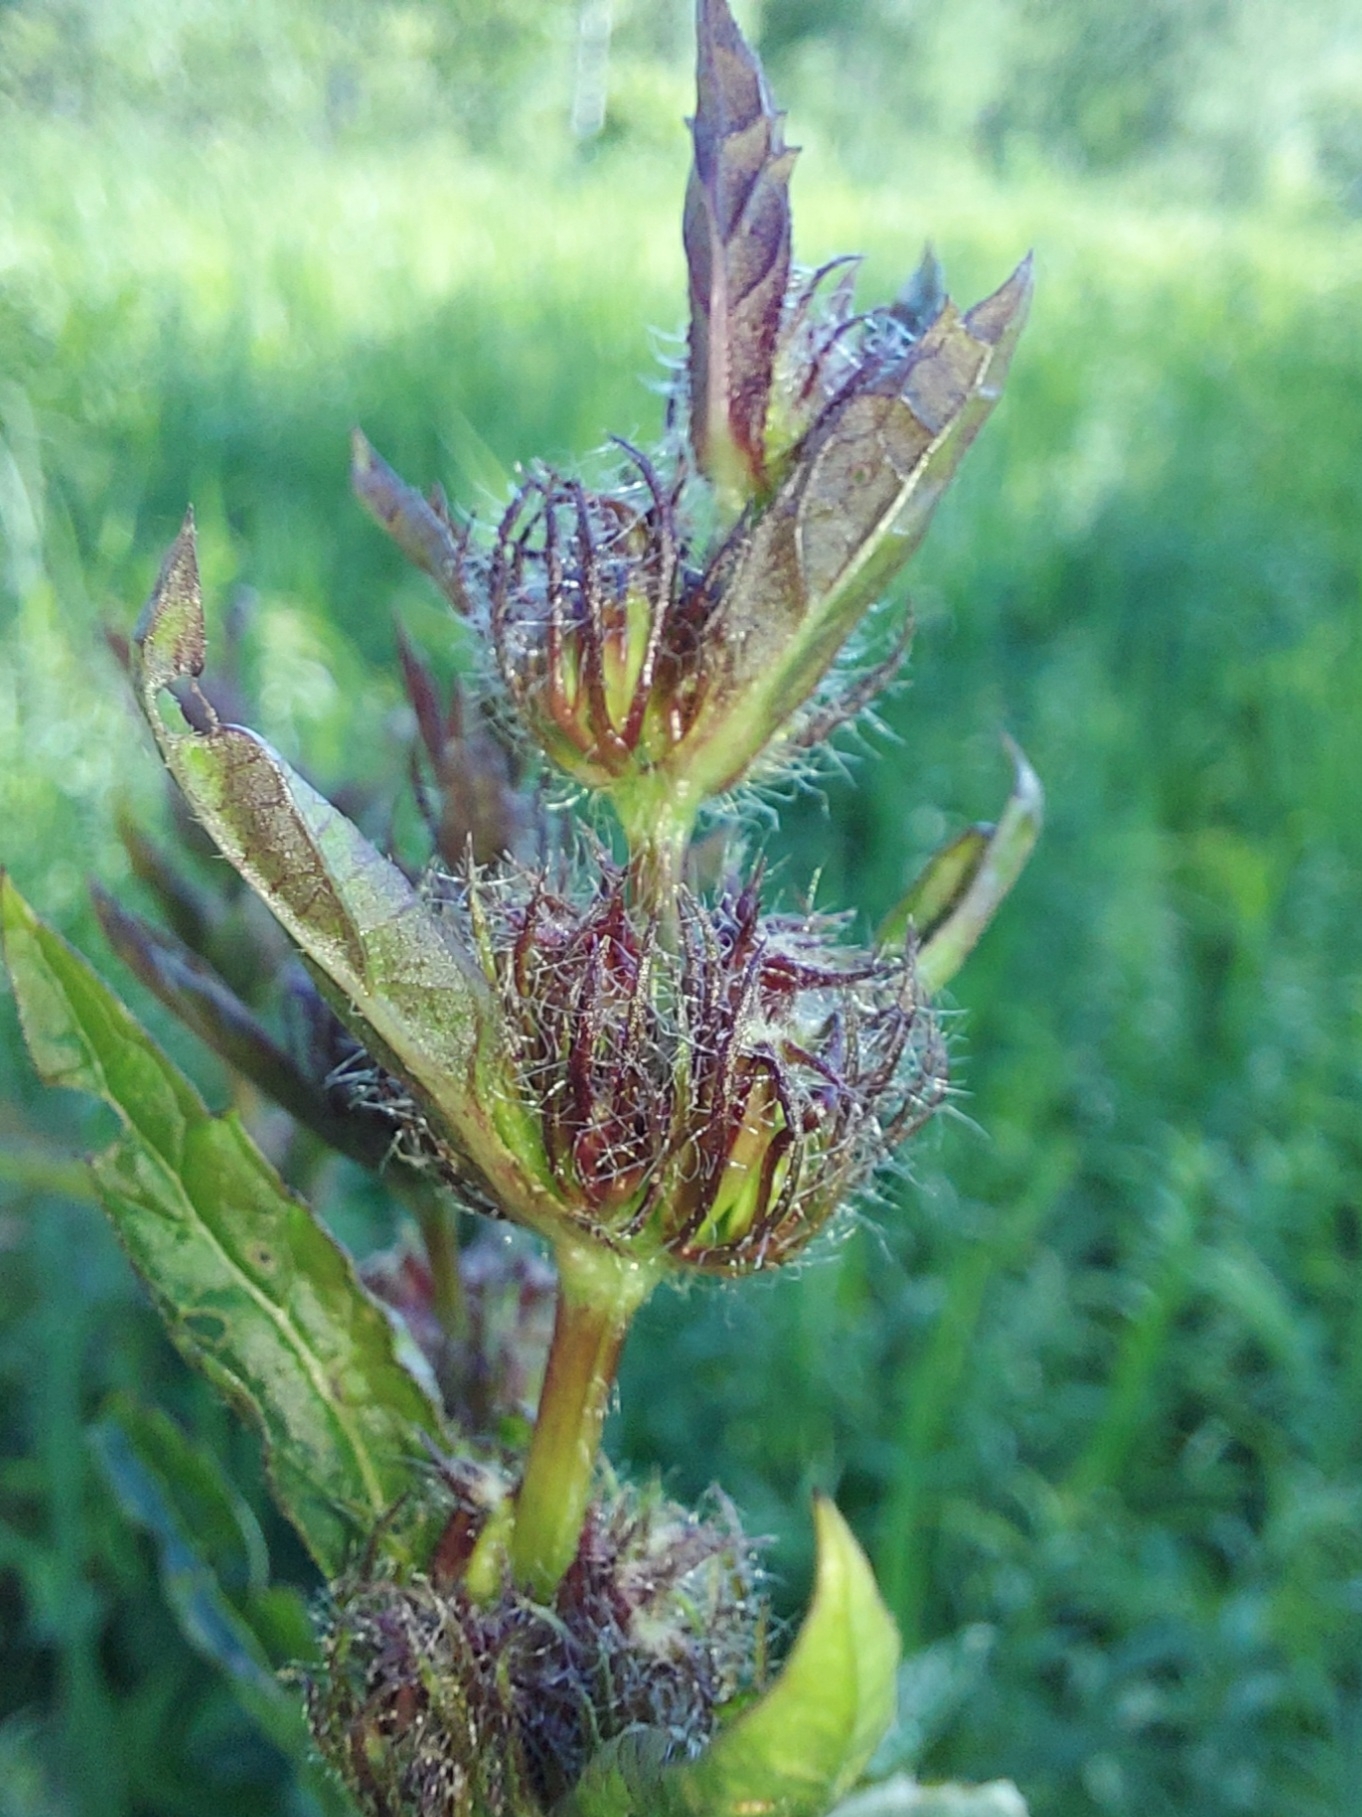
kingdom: Plantae
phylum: Tracheophyta
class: Magnoliopsida
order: Lamiales
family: Lamiaceae
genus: Phlomoides
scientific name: Phlomoides tuberosa
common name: Tuberous jerusalem sage
